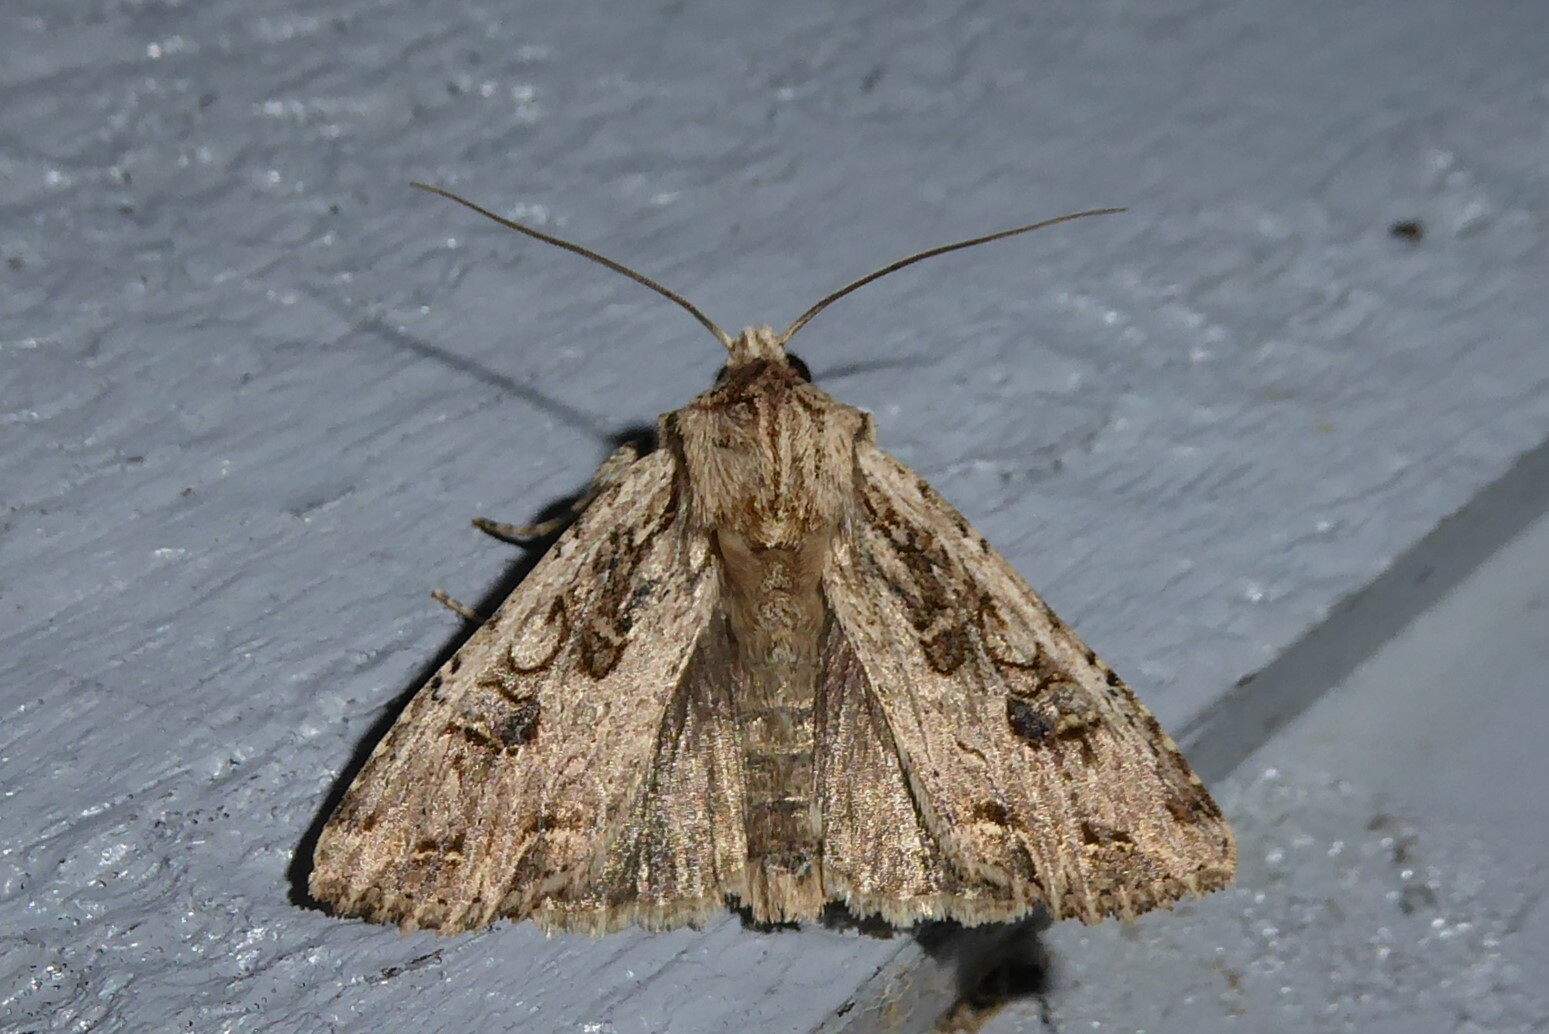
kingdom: Animalia
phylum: Arthropoda
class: Insecta
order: Lepidoptera
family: Noctuidae
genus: Ichneutica
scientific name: Ichneutica lignana
